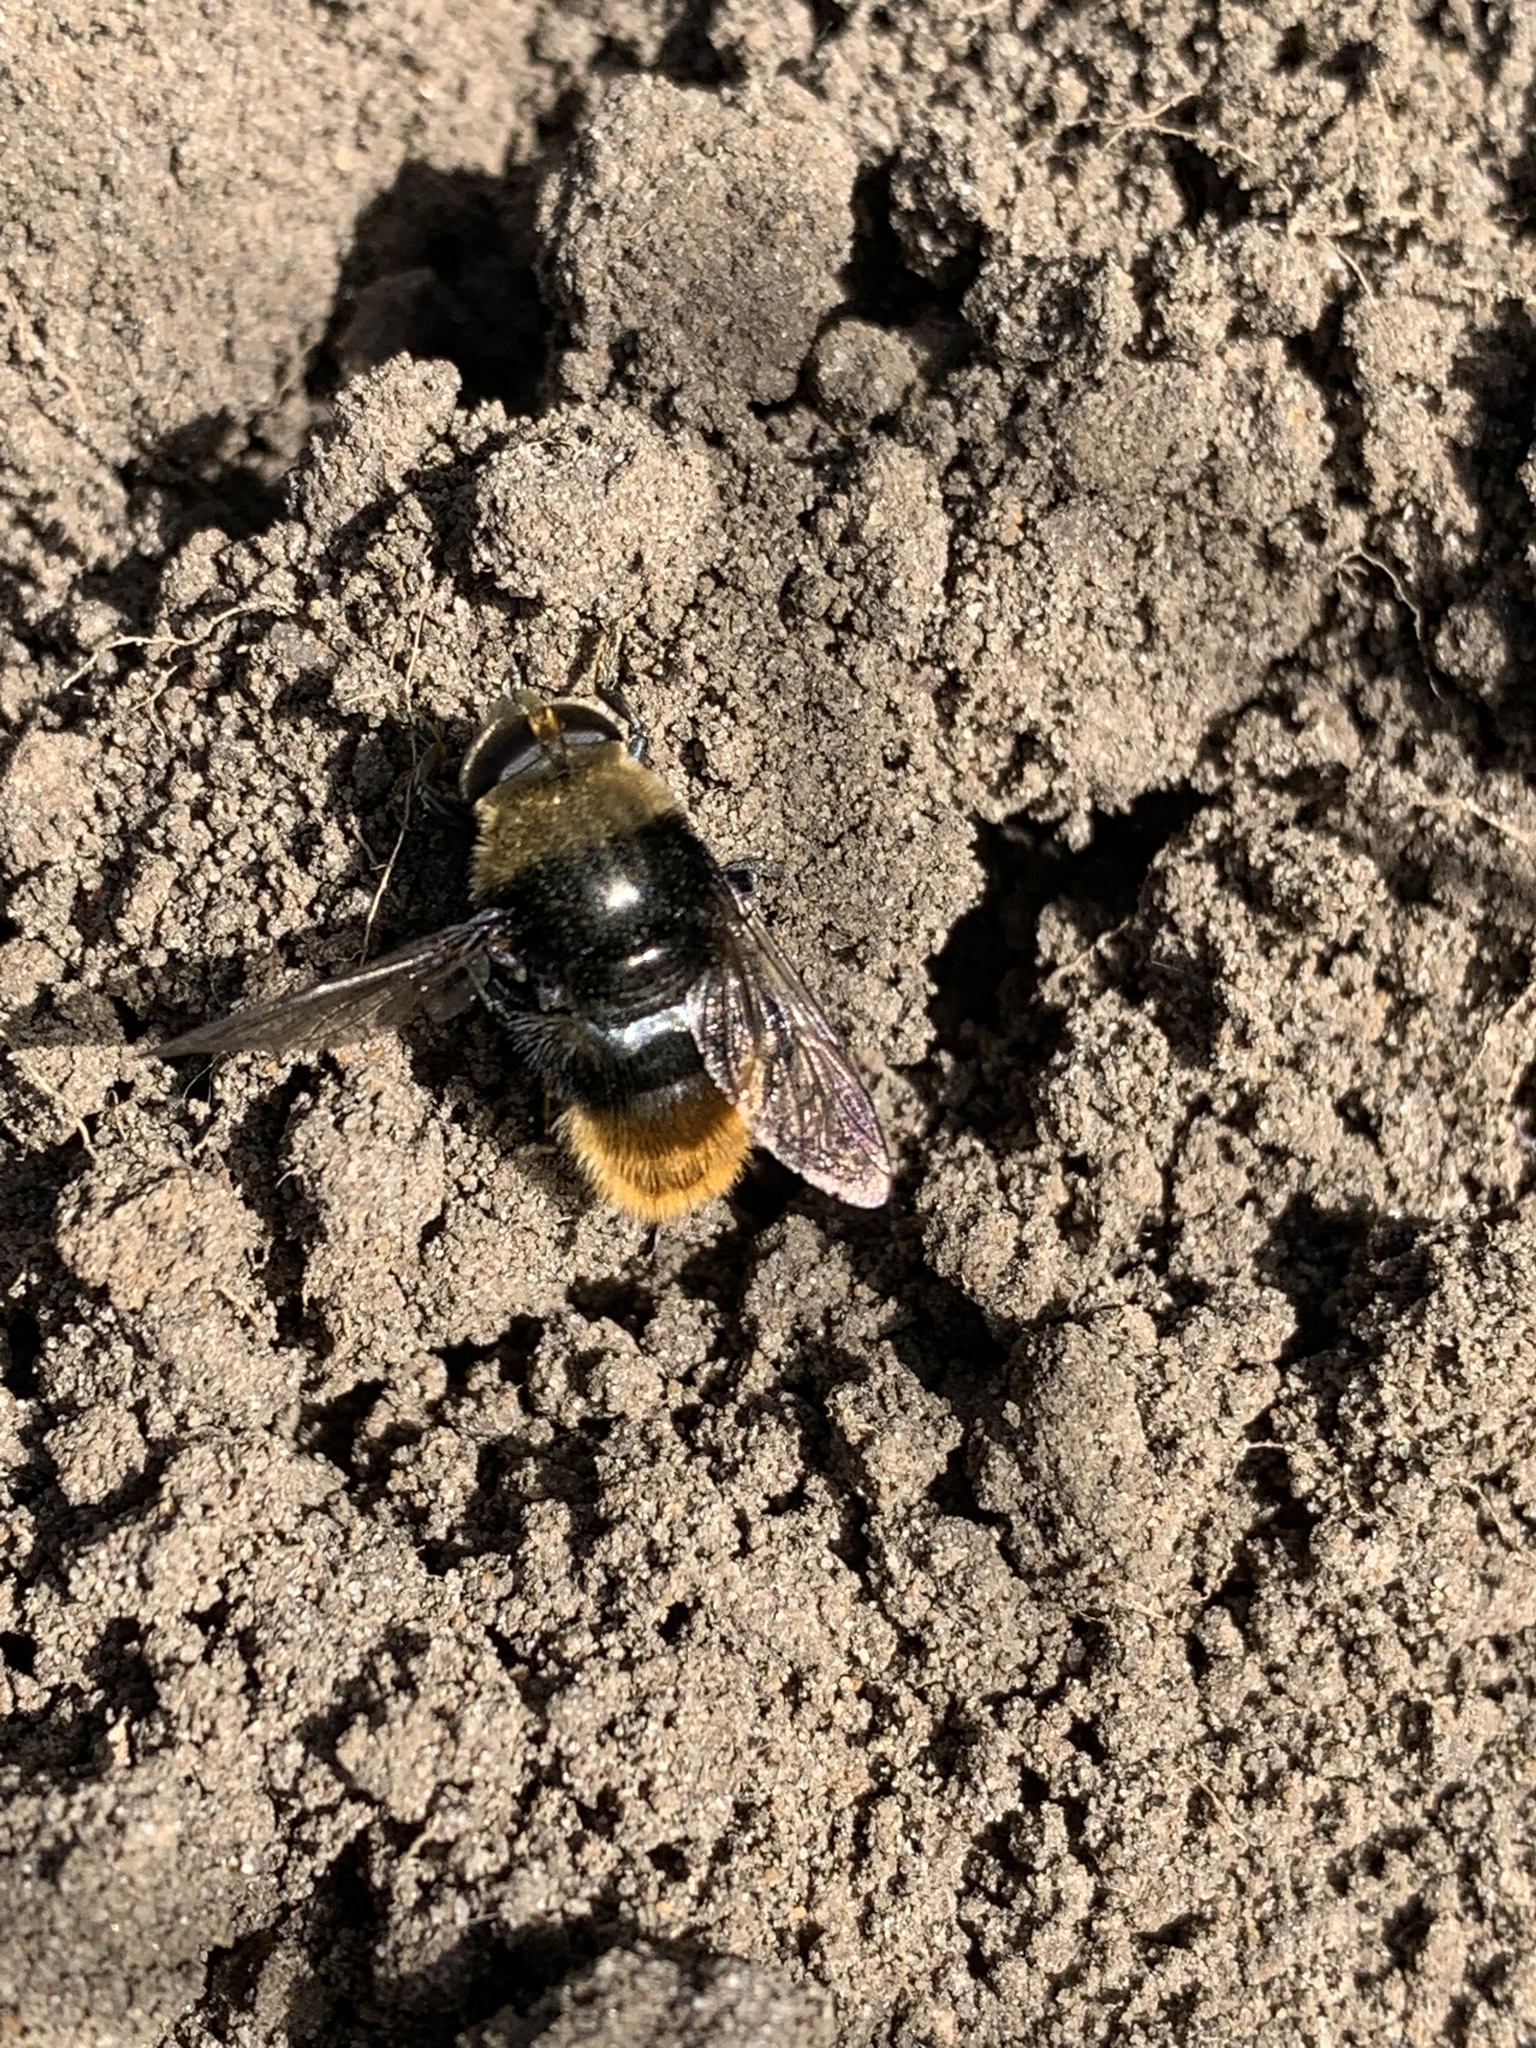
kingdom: Animalia
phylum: Arthropoda
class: Insecta
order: Diptera
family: Syrphidae
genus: Merodon
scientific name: Merodon equestris
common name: Greater bulb-fly
